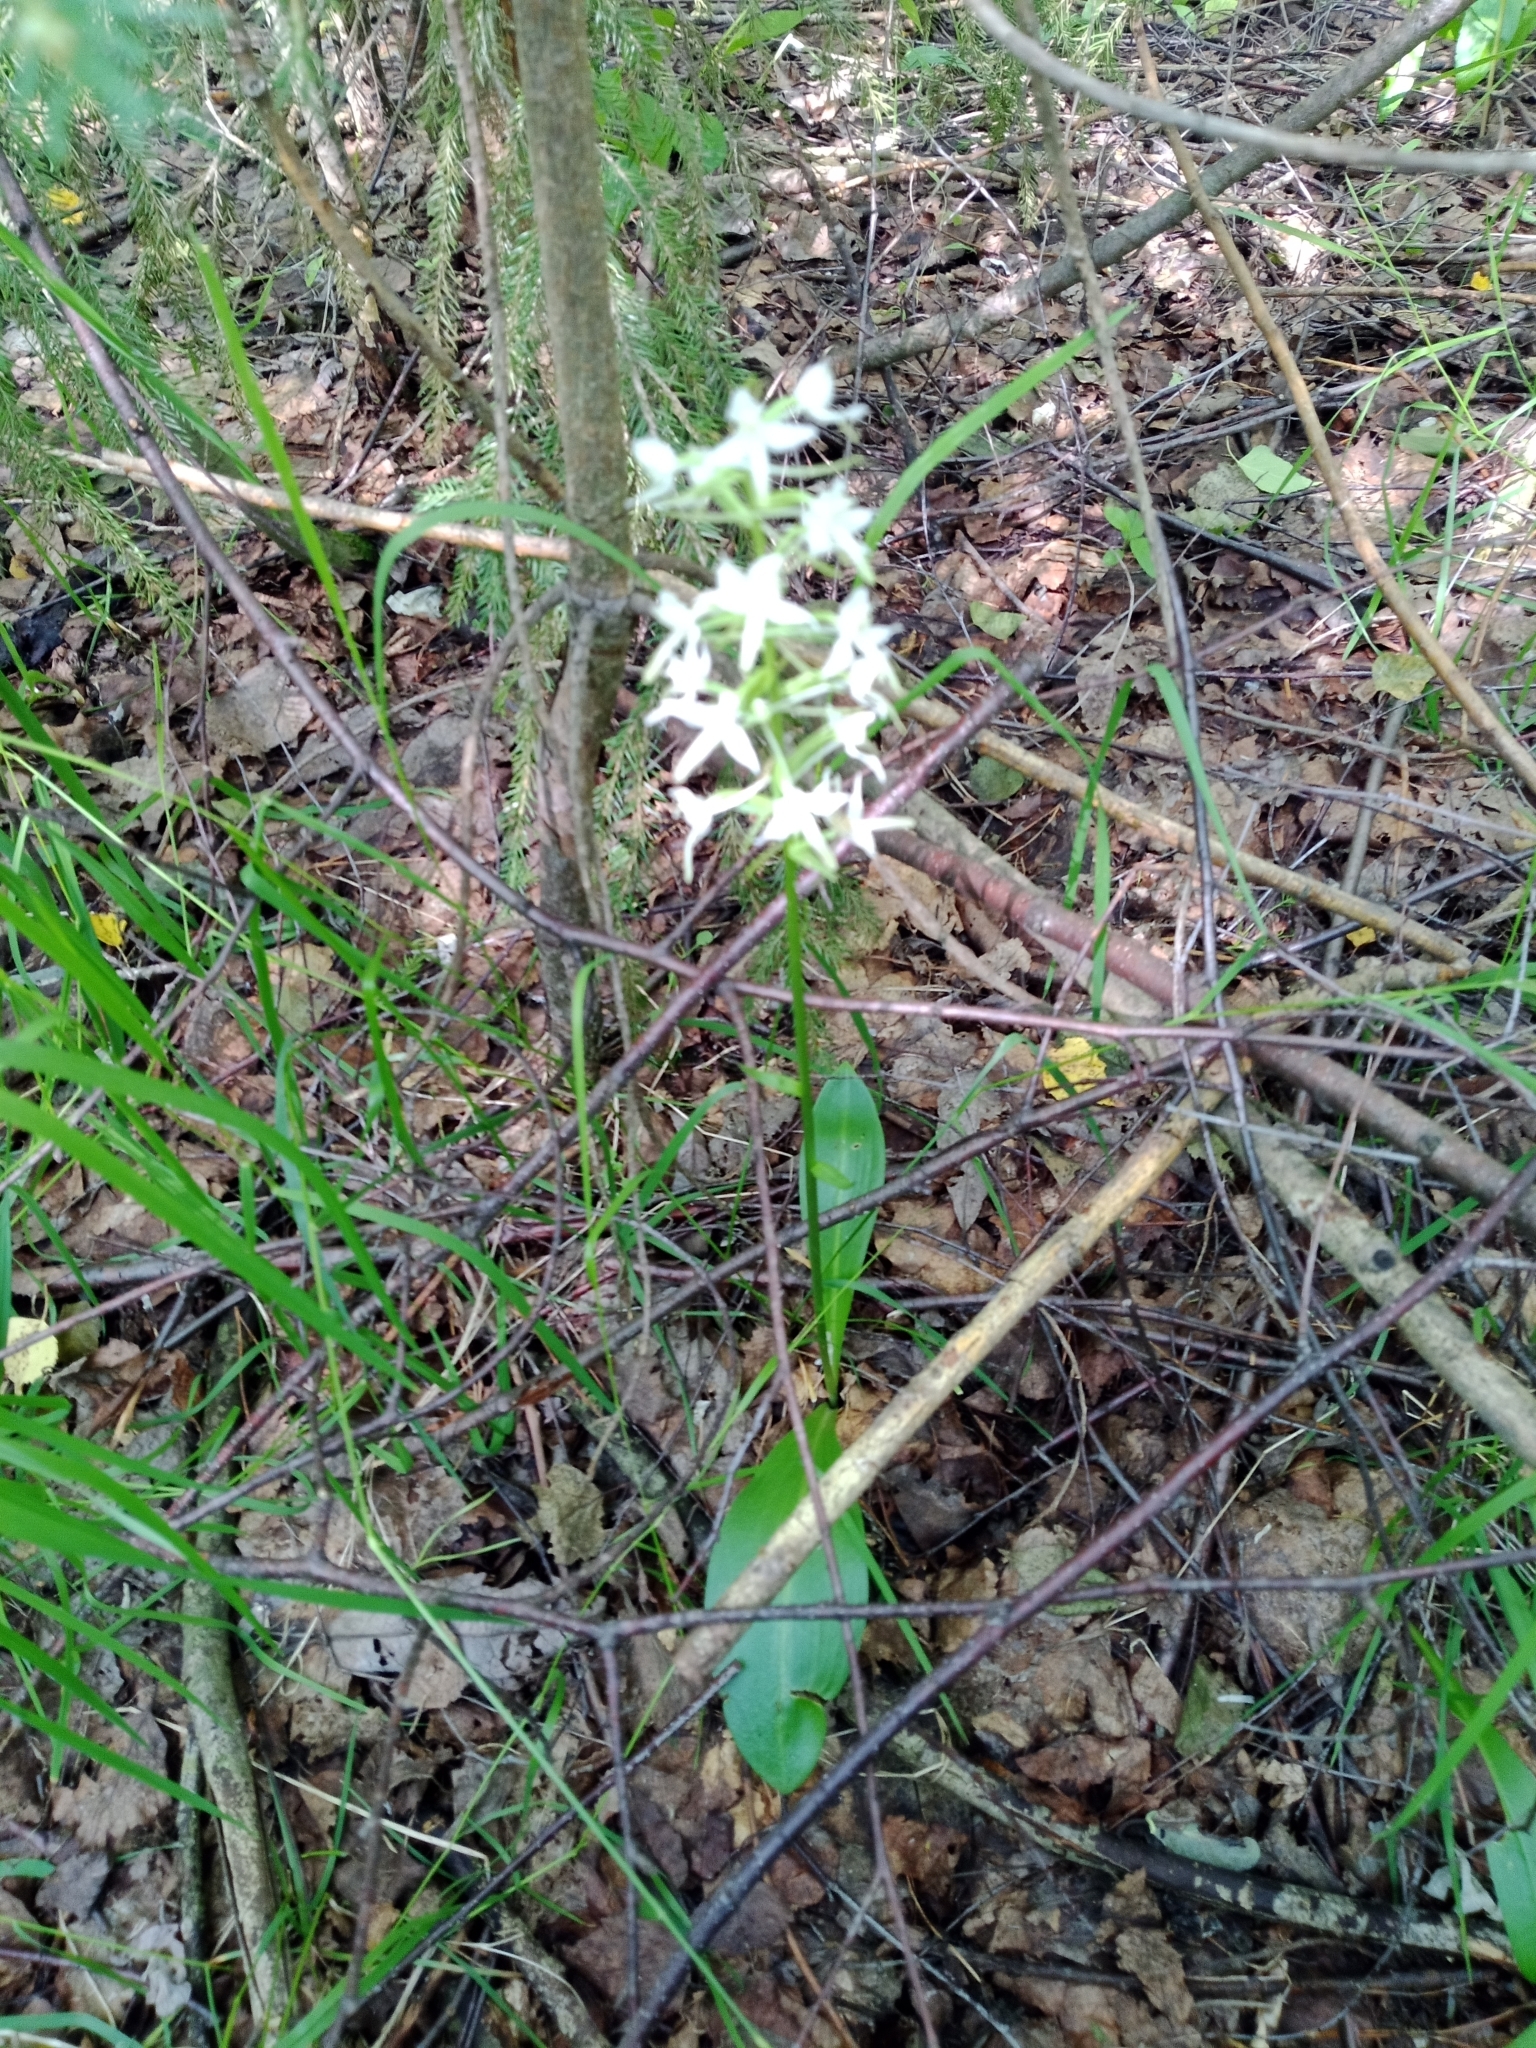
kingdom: Plantae
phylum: Tracheophyta
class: Liliopsida
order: Asparagales
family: Orchidaceae
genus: Platanthera
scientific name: Platanthera bifolia
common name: Lesser butterfly-orchid
